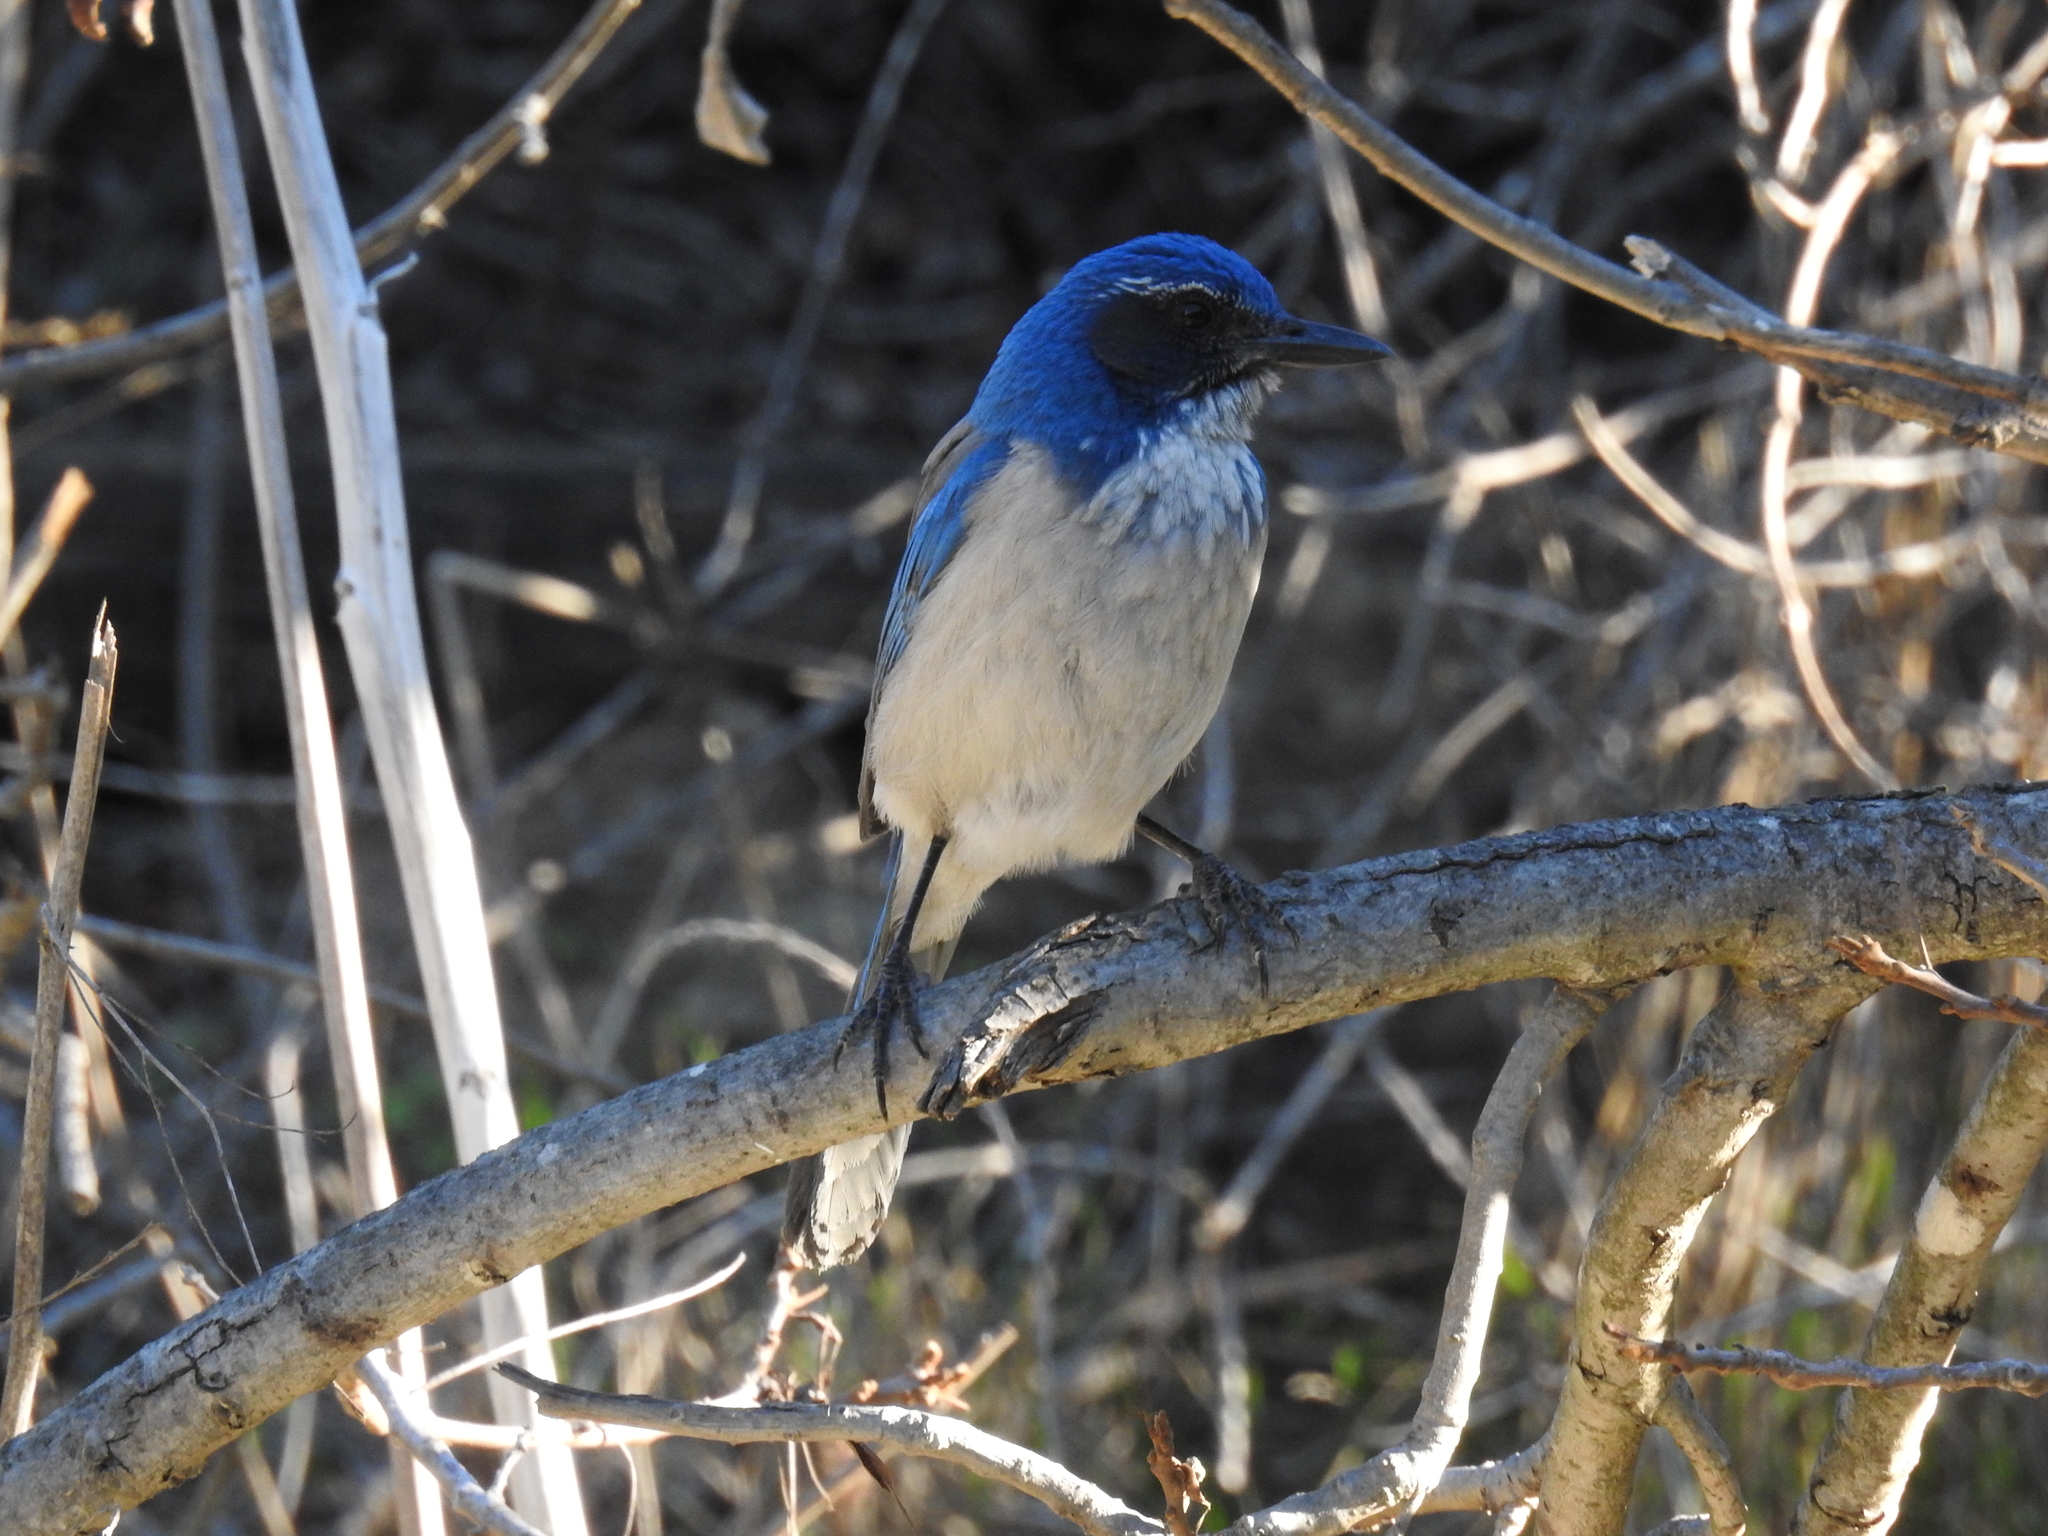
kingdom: Animalia
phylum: Chordata
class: Aves
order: Passeriformes
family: Corvidae
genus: Aphelocoma
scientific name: Aphelocoma californica
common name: California scrub-jay
